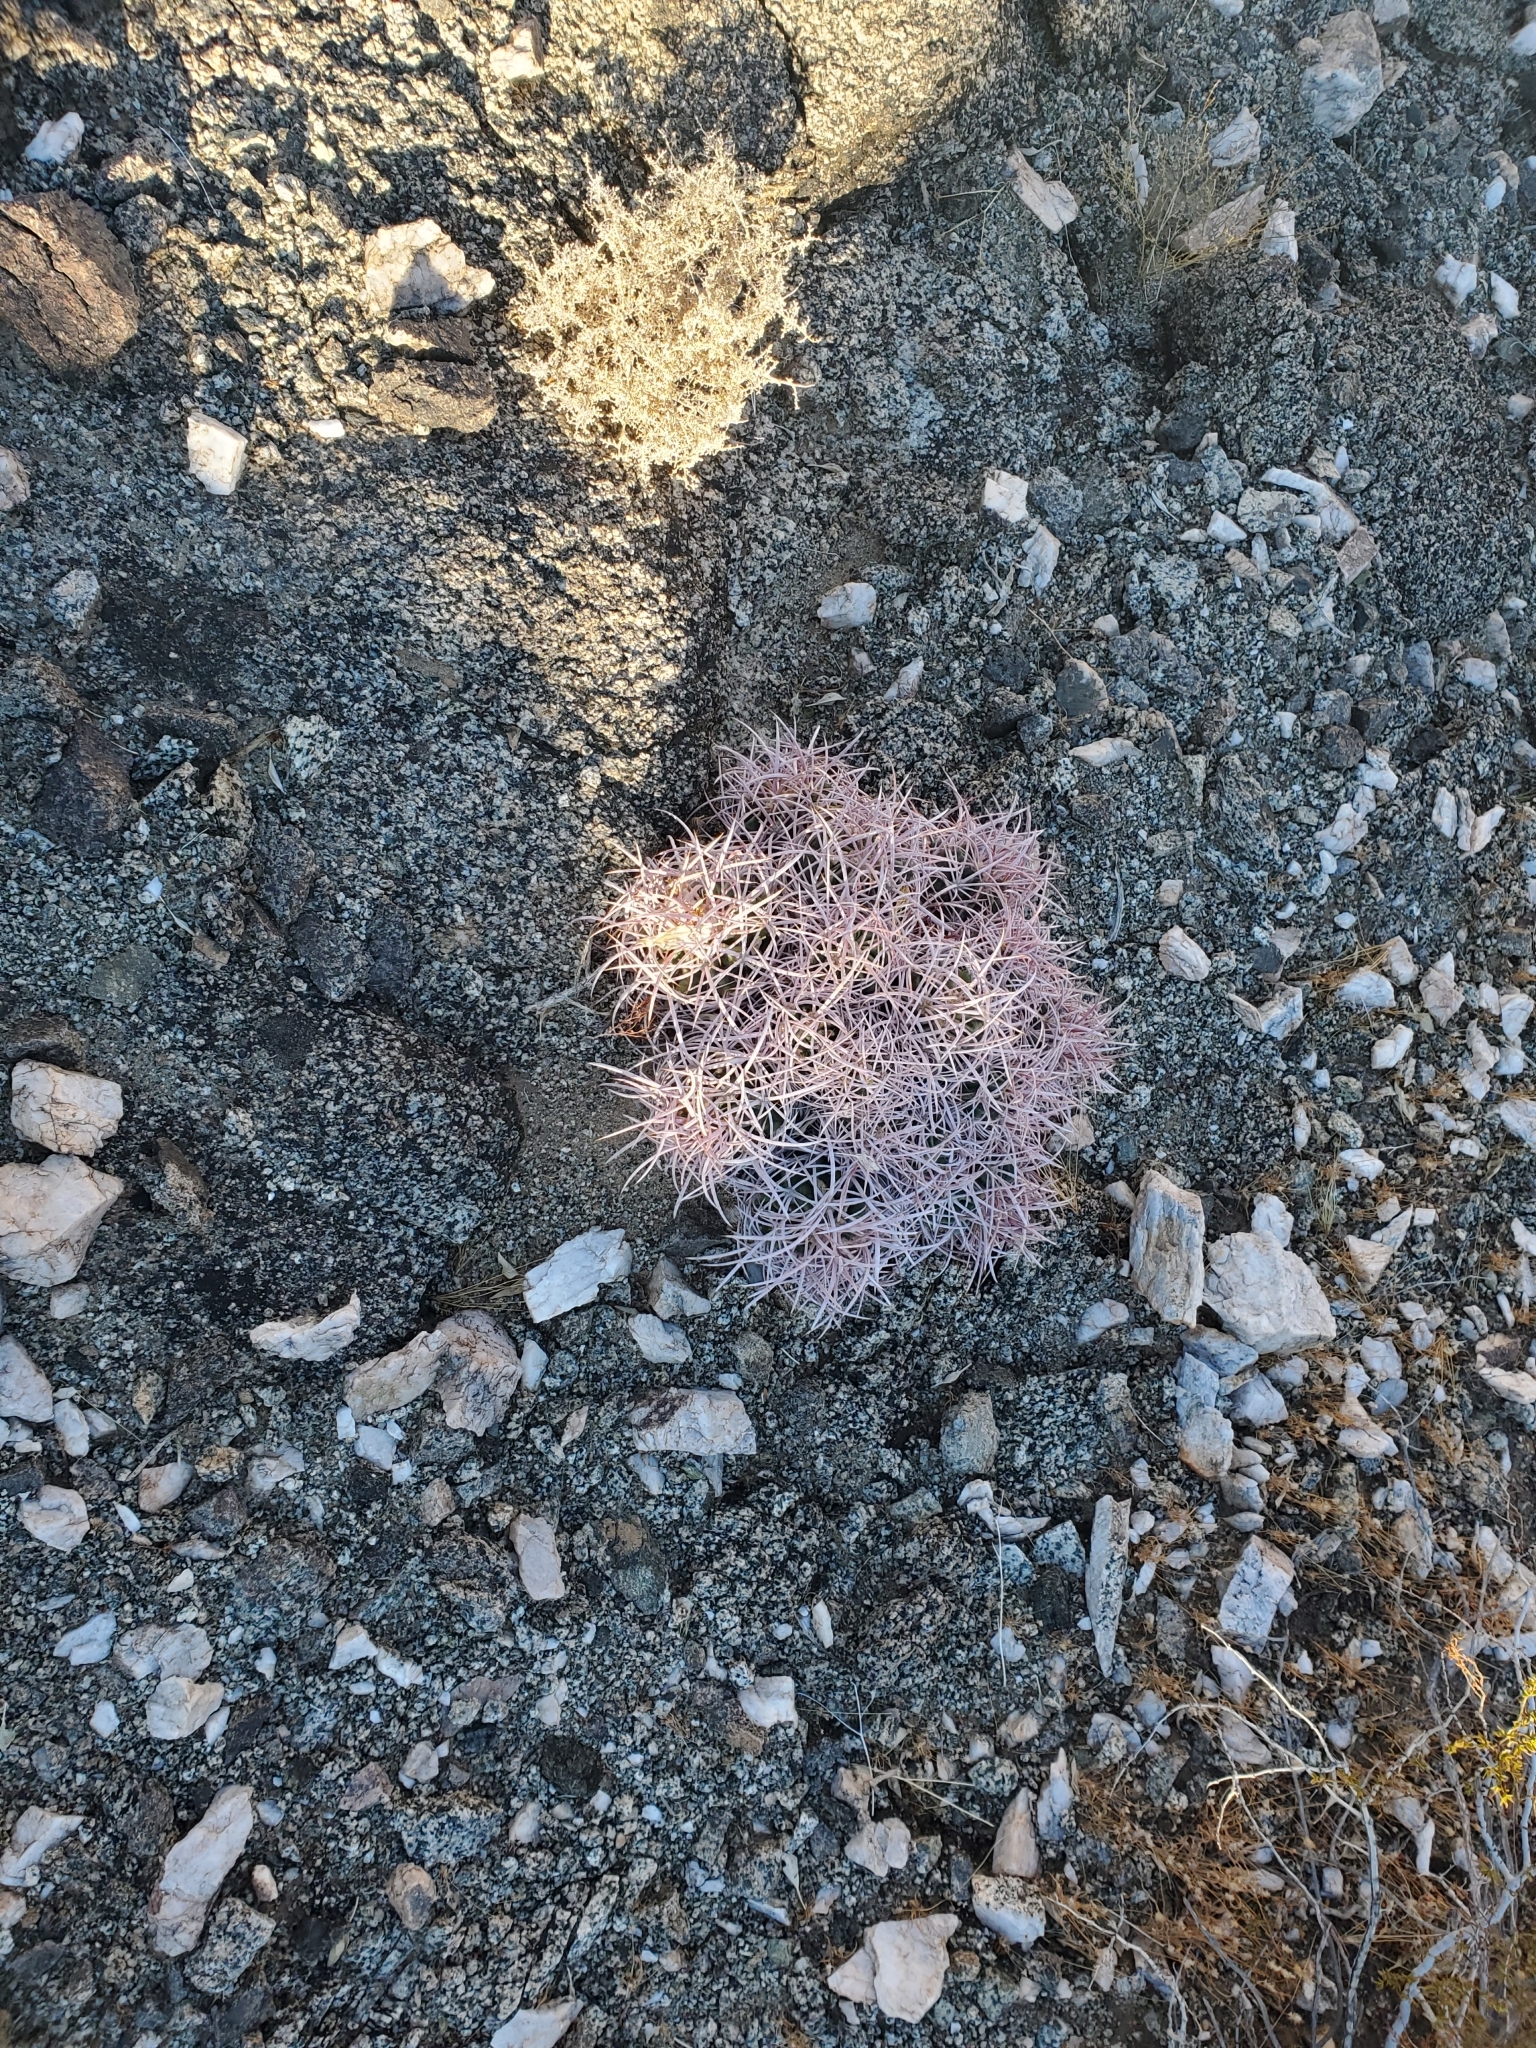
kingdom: Plantae
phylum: Tracheophyta
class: Magnoliopsida
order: Caryophyllales
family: Cactaceae
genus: Echinocactus
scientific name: Echinocactus polycephalus
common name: Cottontop cactus
